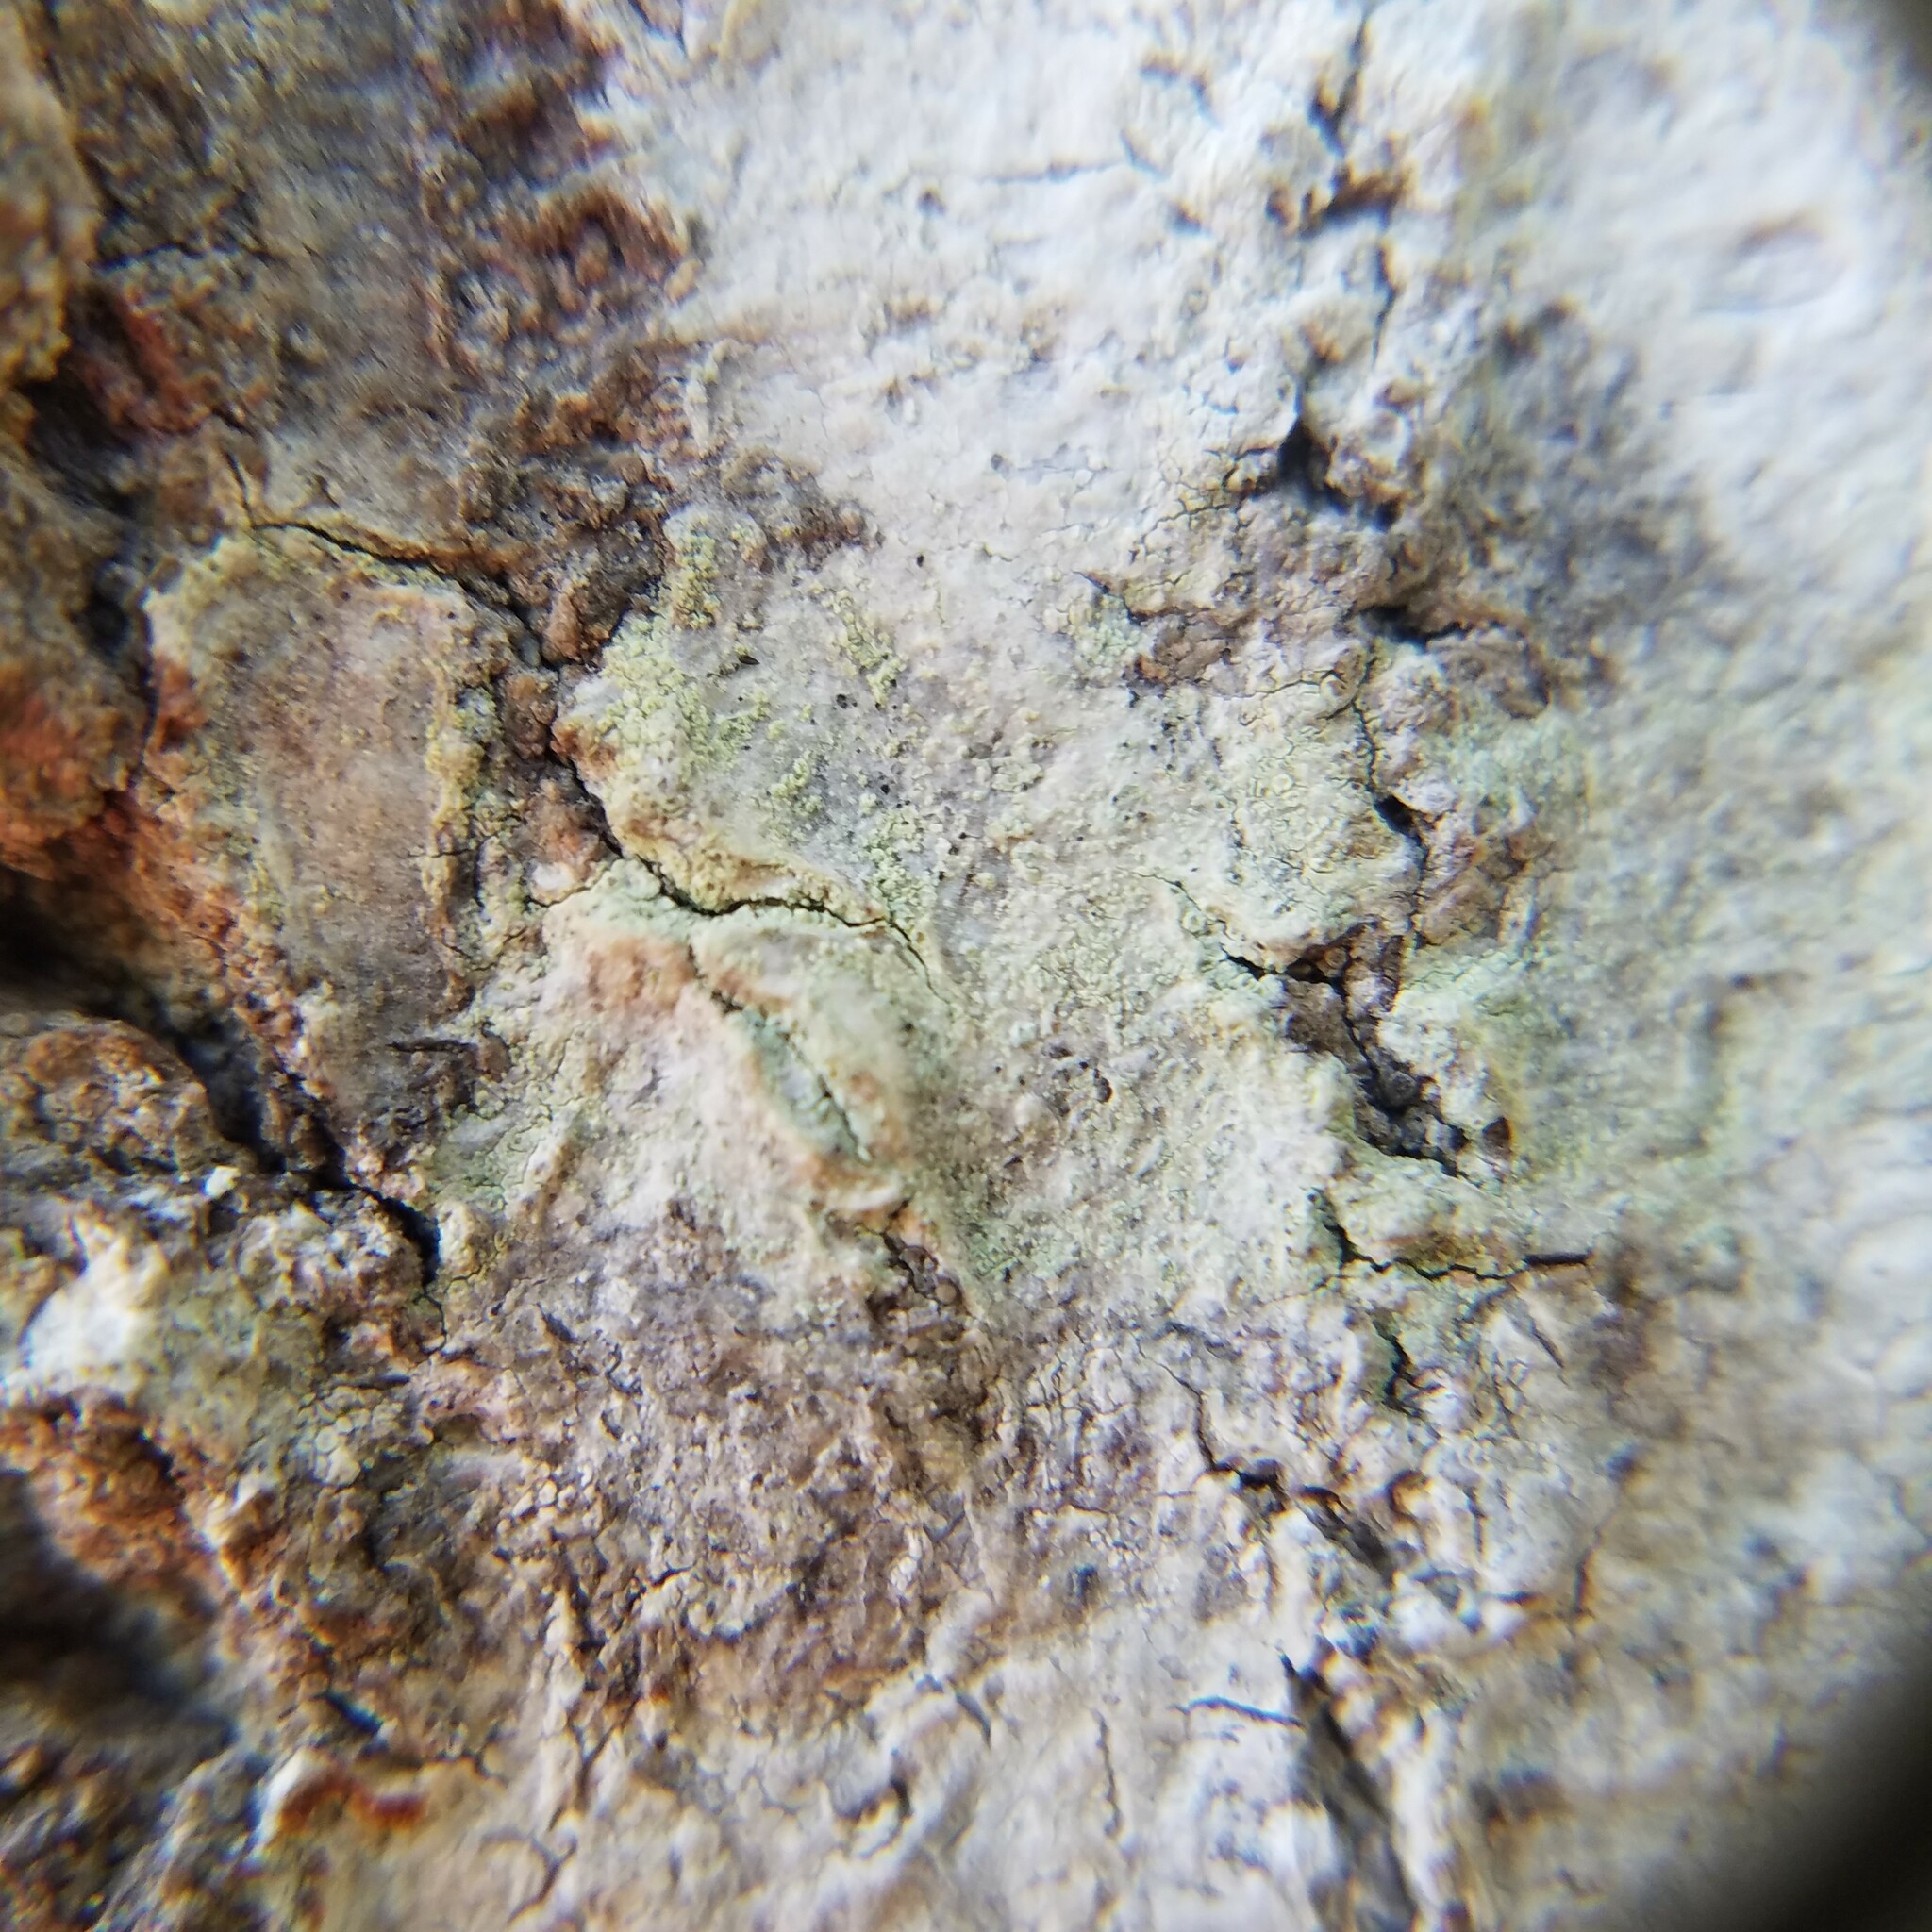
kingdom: Fungi
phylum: Ascomycota
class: Lecanoromycetes
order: Lecanorales
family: Lecanoraceae
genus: Lecanora
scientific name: Lecanora strobilina
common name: Mealy rim-lichen
